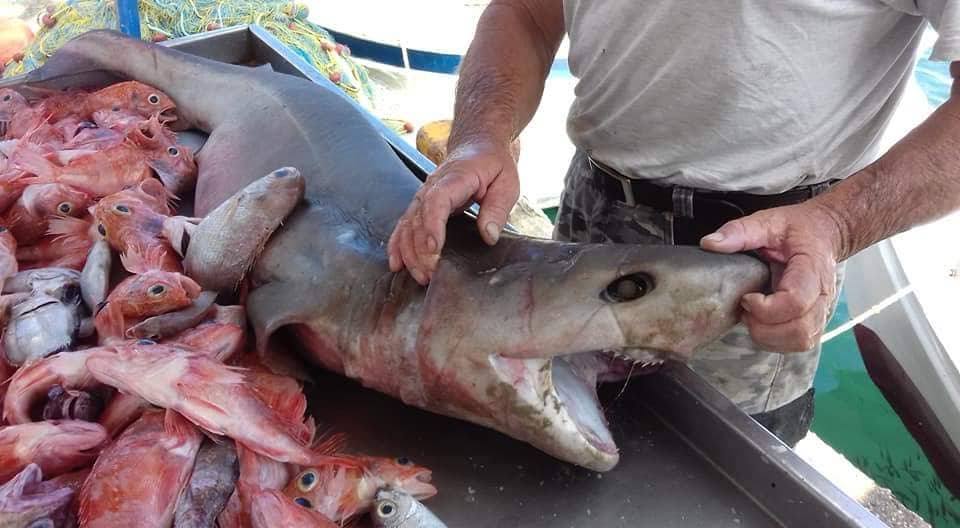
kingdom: Animalia
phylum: Chordata
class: Elasmobranchii
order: Hexanchiformes
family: Hexanchidae
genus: Hexanchus
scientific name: Hexanchus griseus
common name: Bluntnose sixgill shark
